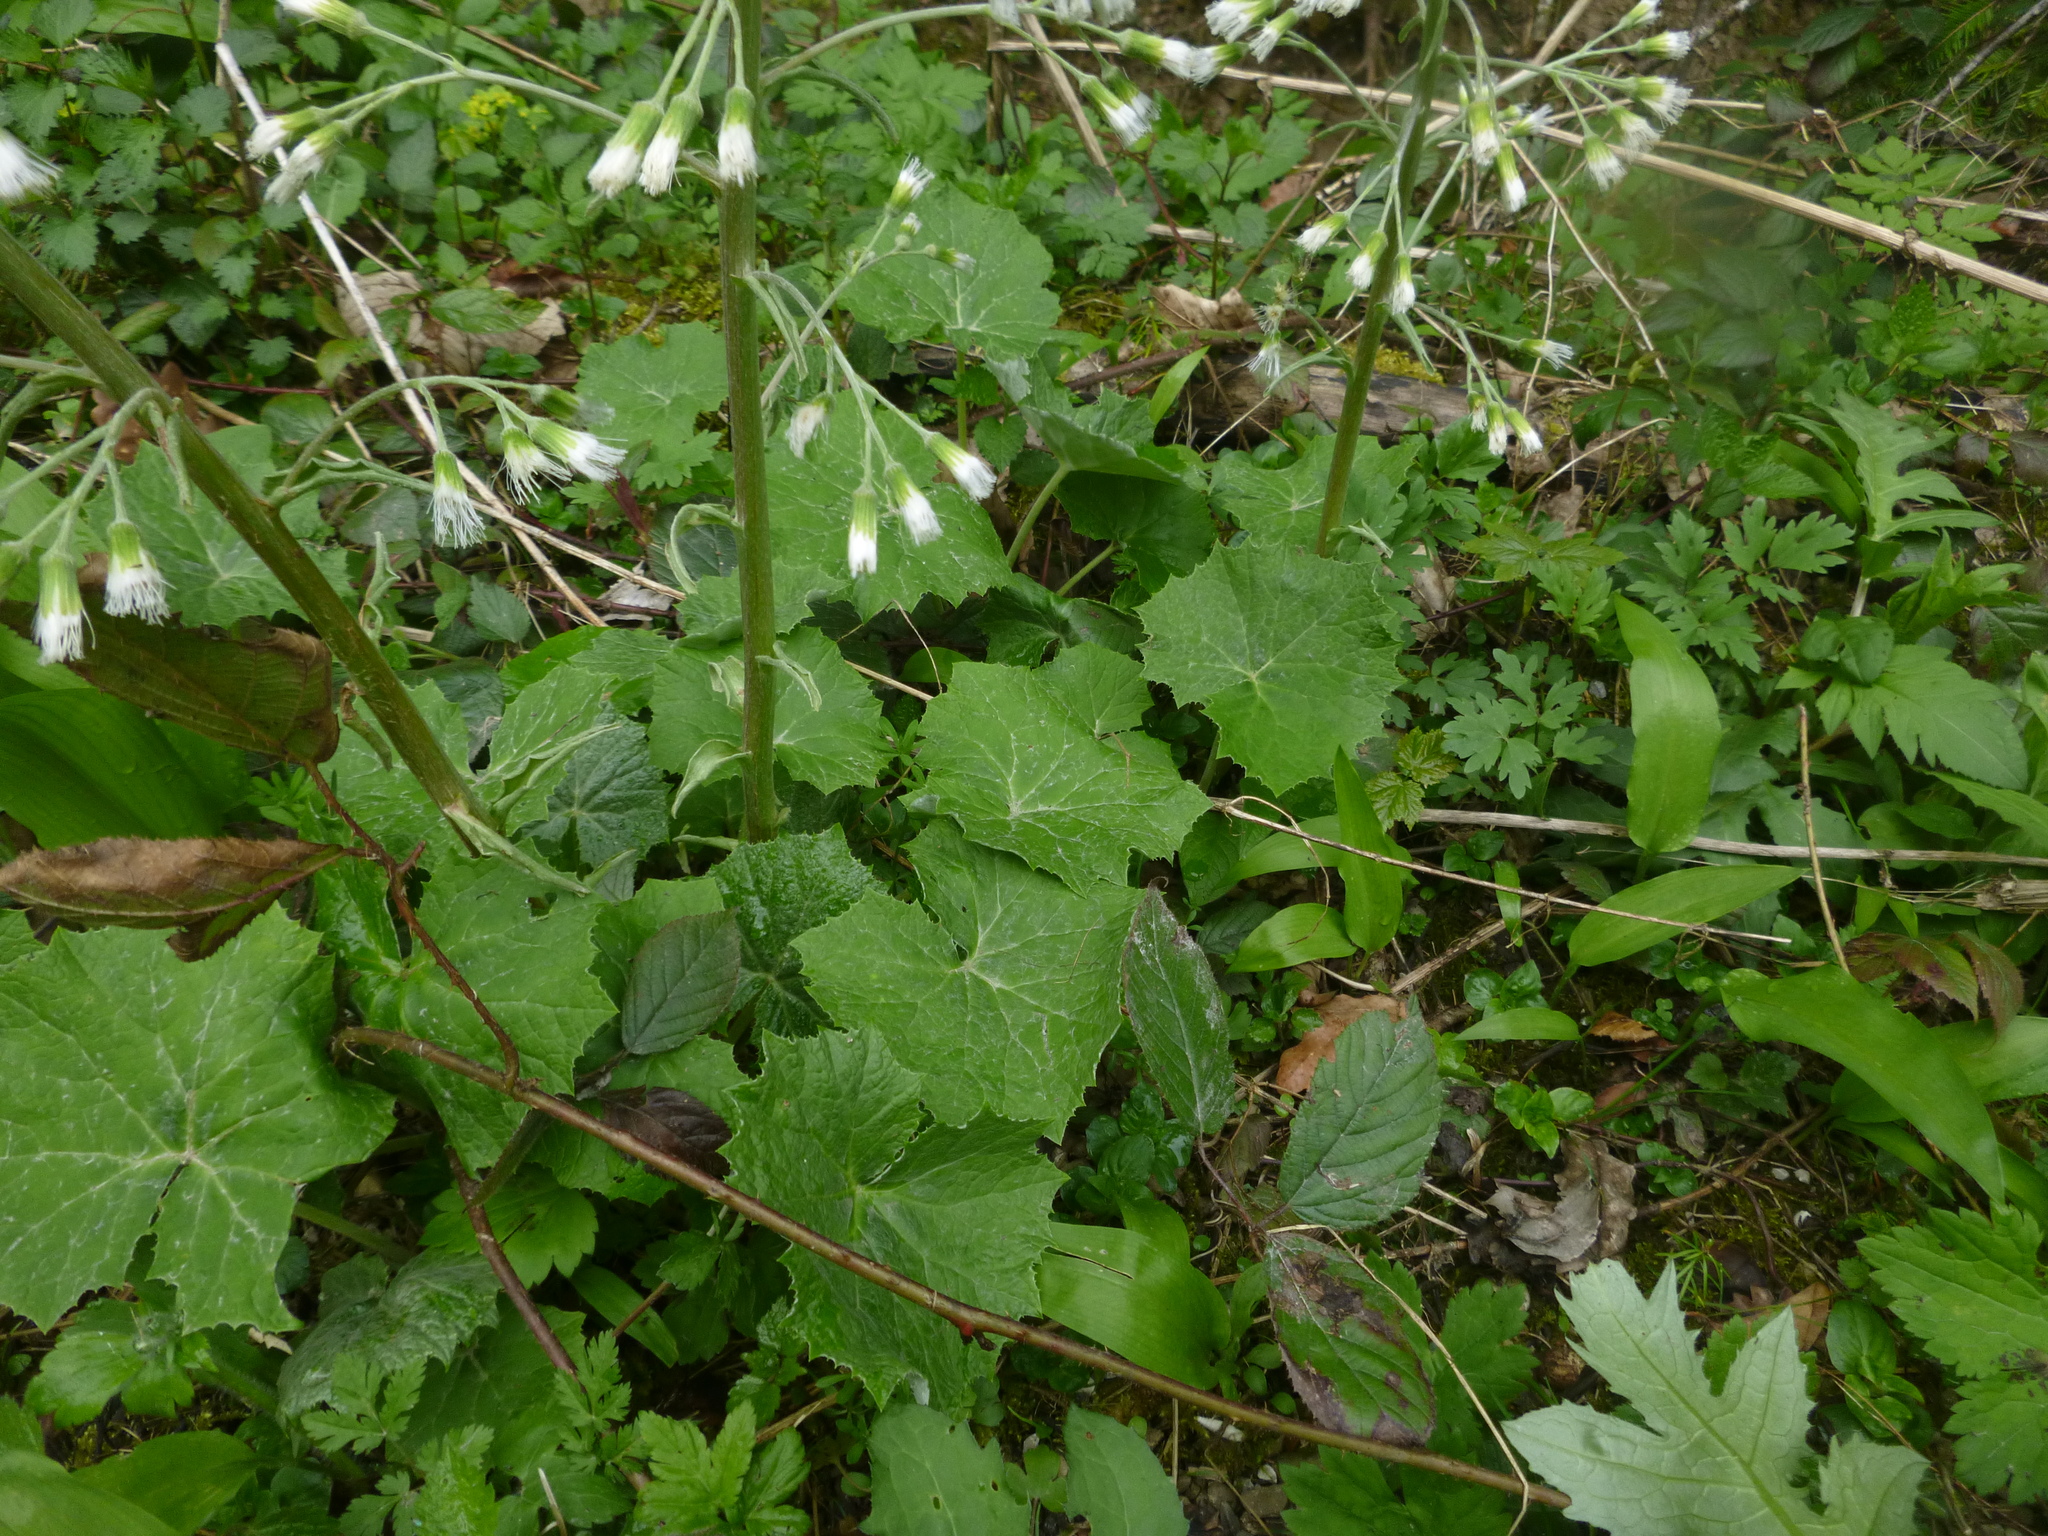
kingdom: Plantae
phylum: Tracheophyta
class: Magnoliopsida
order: Asterales
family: Asteraceae
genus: Petasites
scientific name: Petasites albus
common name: White butterbur
